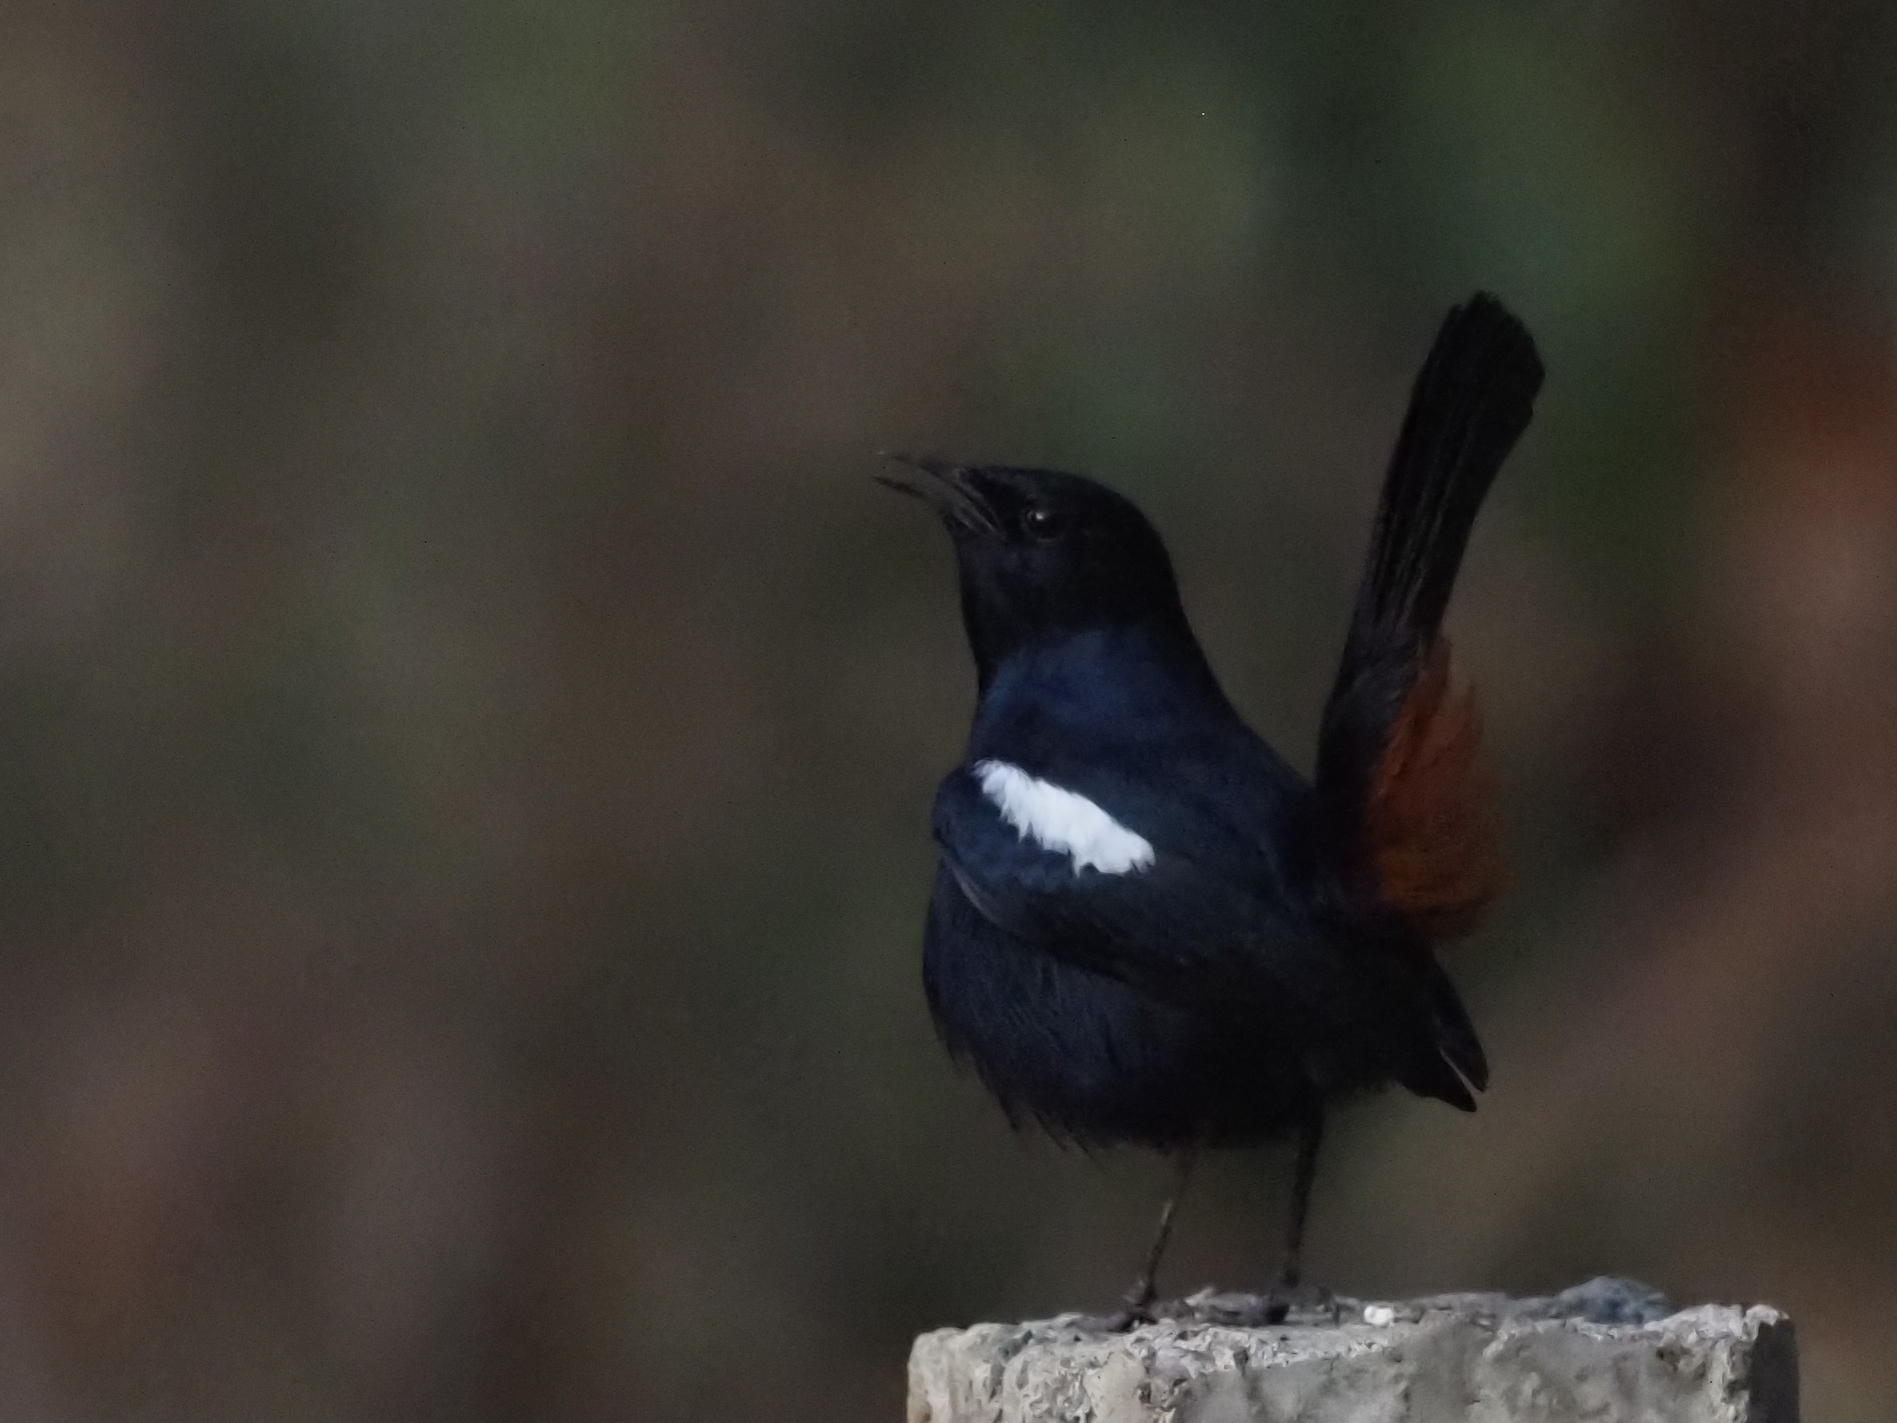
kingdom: Animalia
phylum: Chordata
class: Aves
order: Passeriformes
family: Muscicapidae
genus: Saxicoloides
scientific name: Saxicoloides fulicatus
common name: Indian robin
